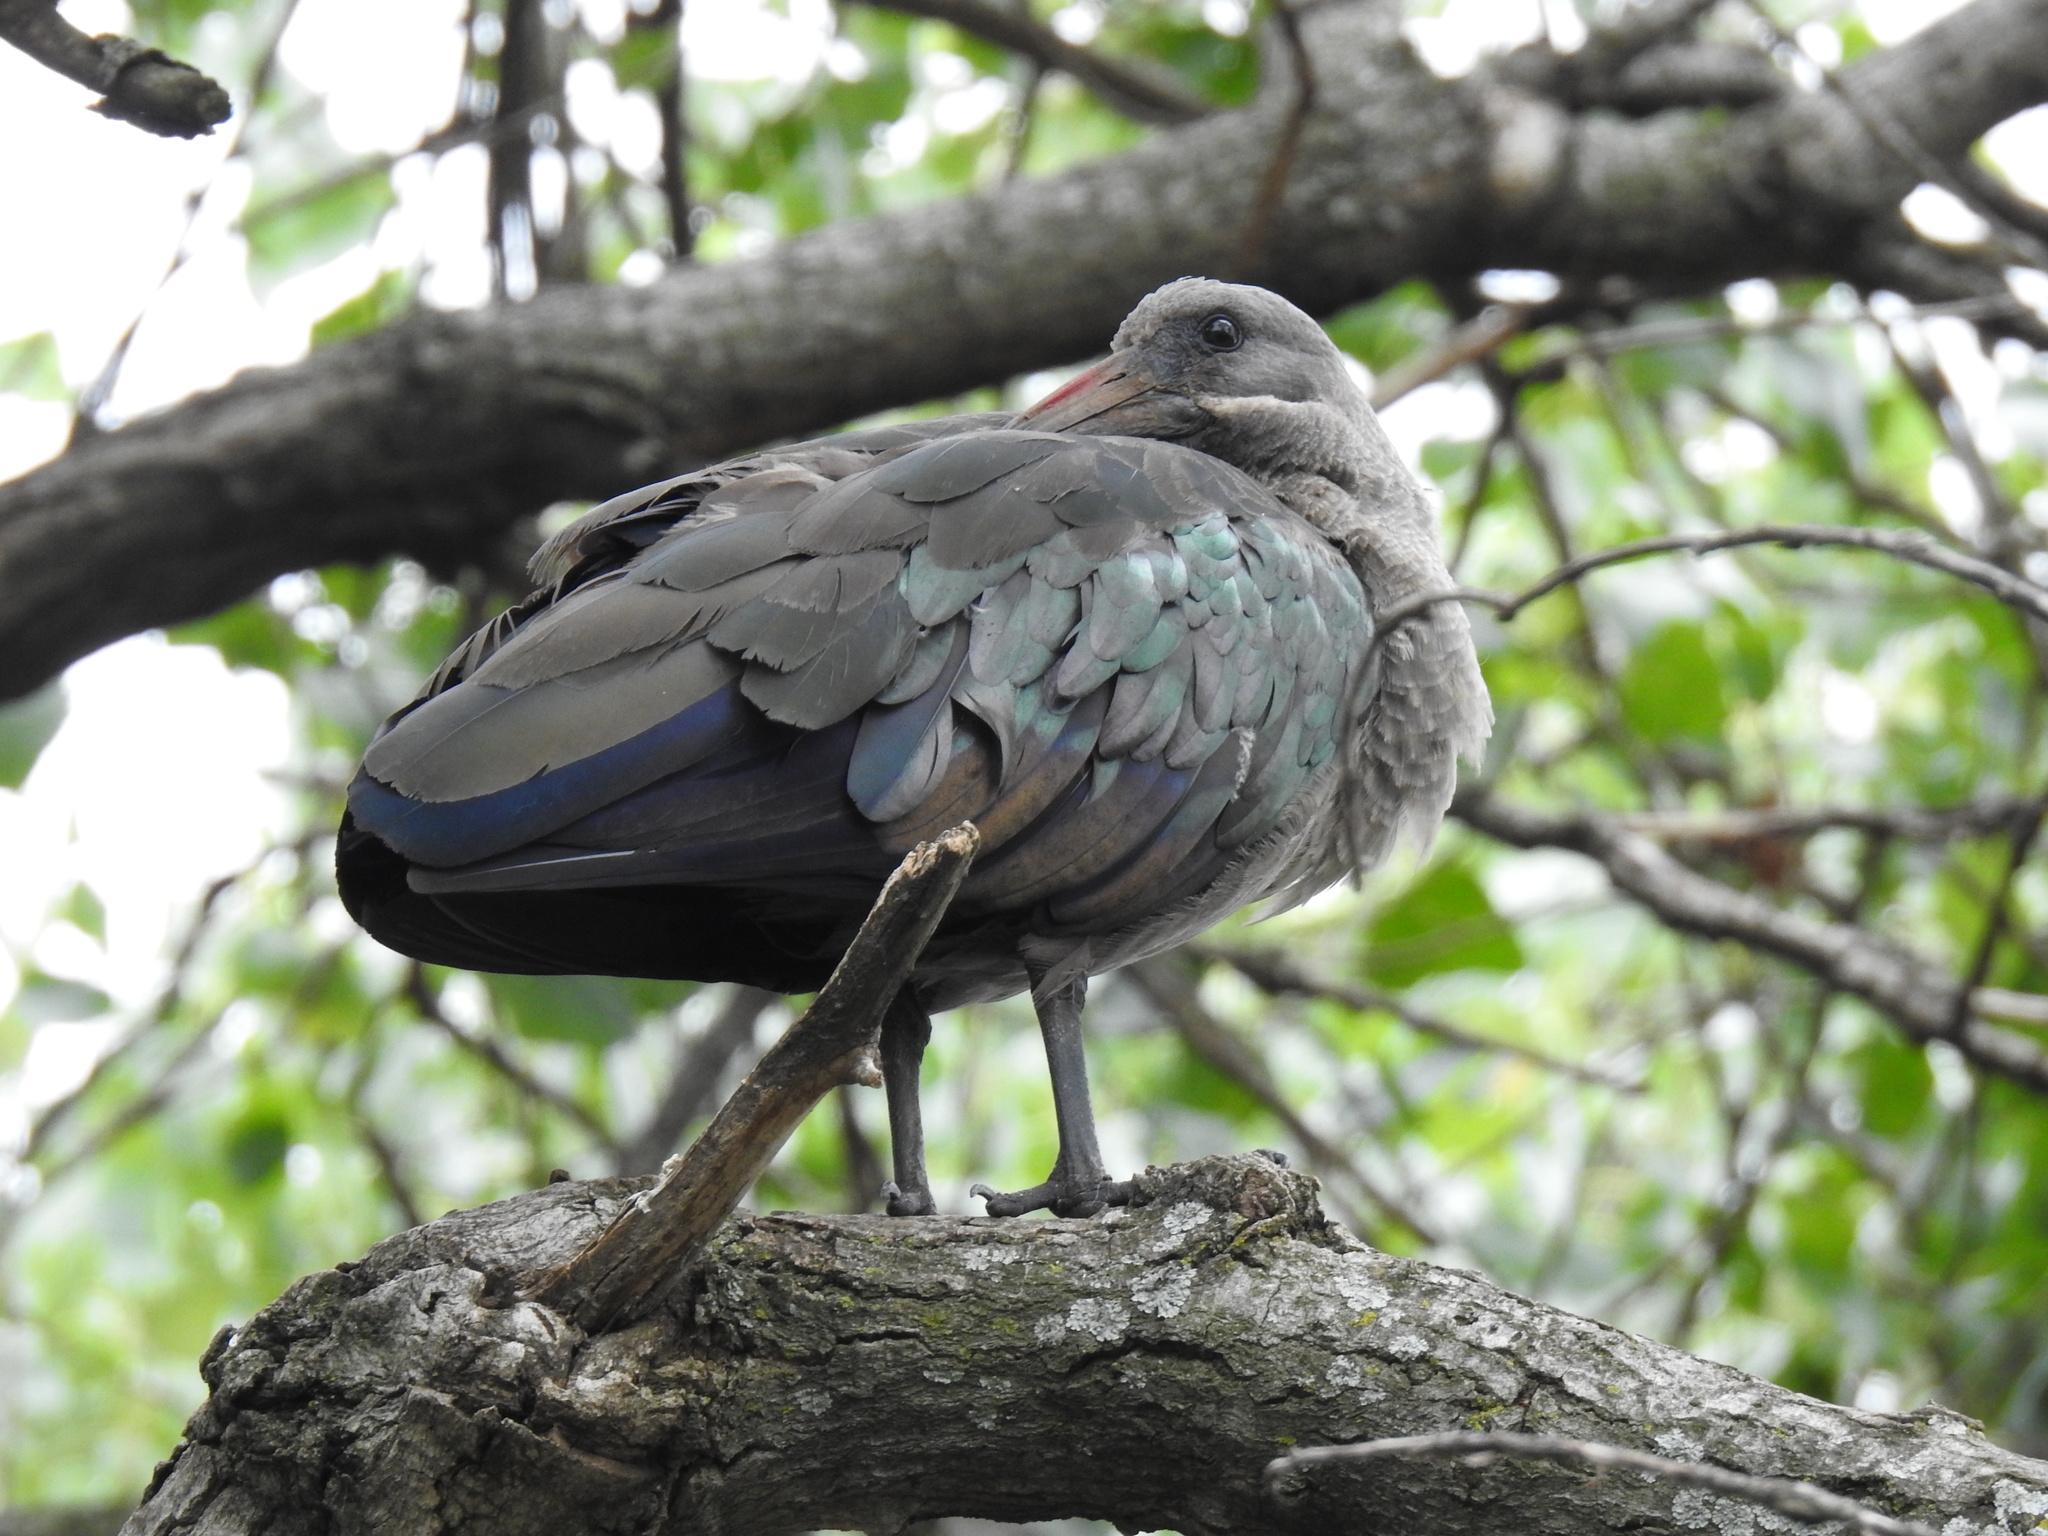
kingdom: Animalia
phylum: Chordata
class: Aves
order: Pelecaniformes
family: Threskiornithidae
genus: Bostrychia
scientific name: Bostrychia hagedash
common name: Hadada ibis
